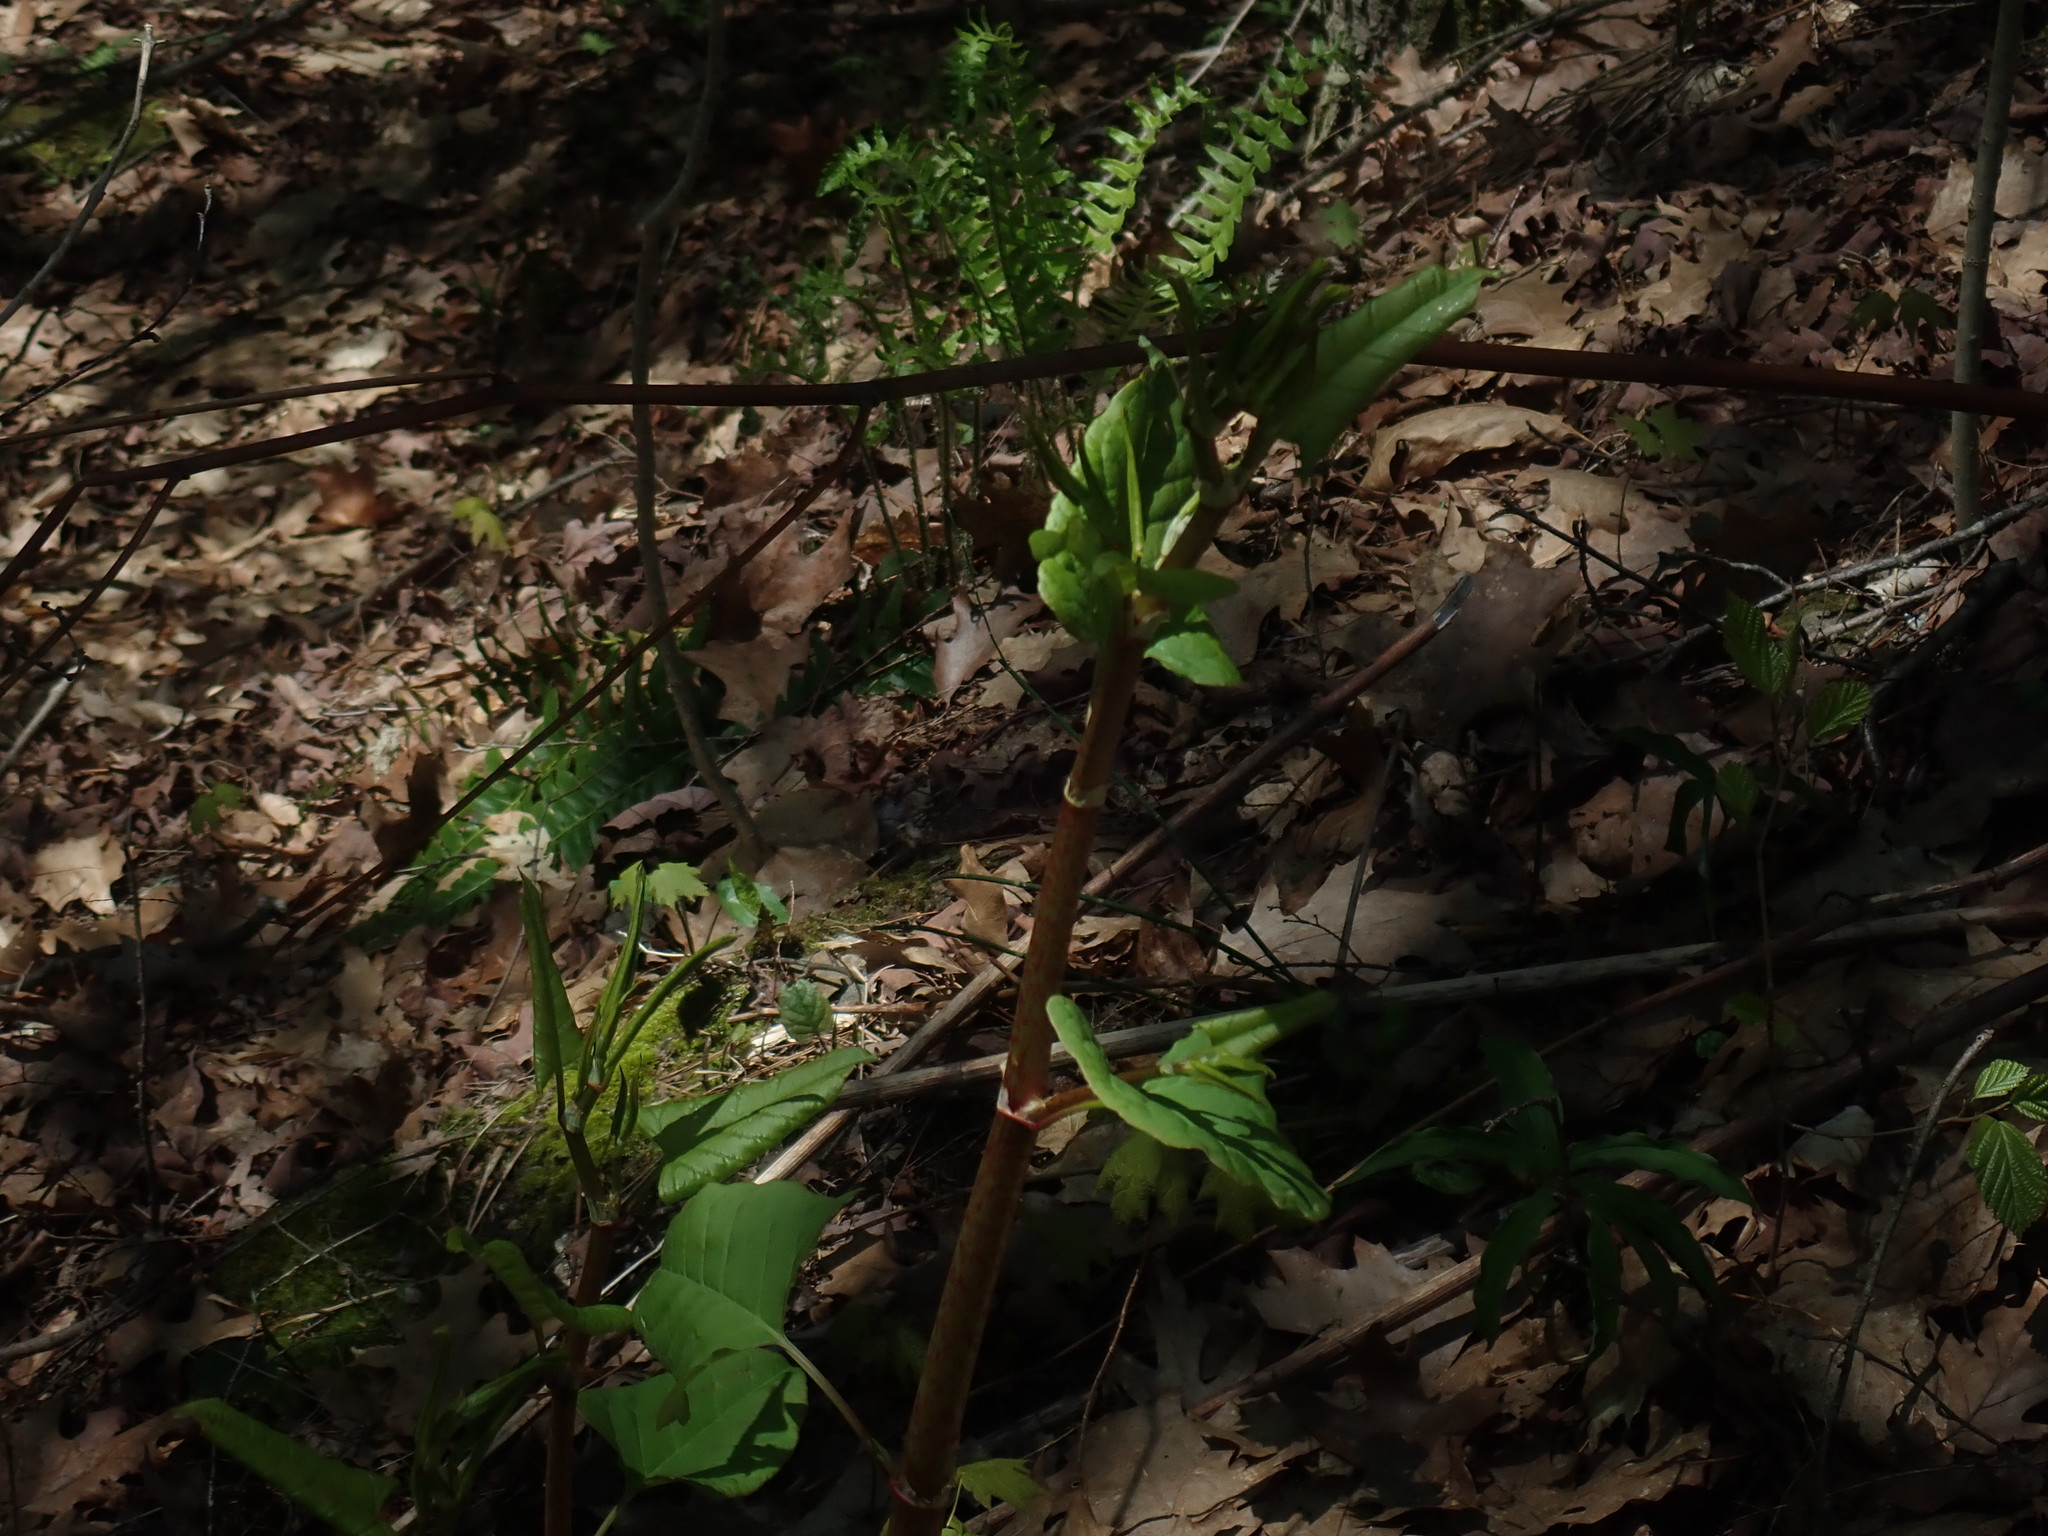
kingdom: Plantae
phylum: Tracheophyta
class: Magnoliopsida
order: Caryophyllales
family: Polygonaceae
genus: Reynoutria
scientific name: Reynoutria japonica
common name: Japanese knotweed
